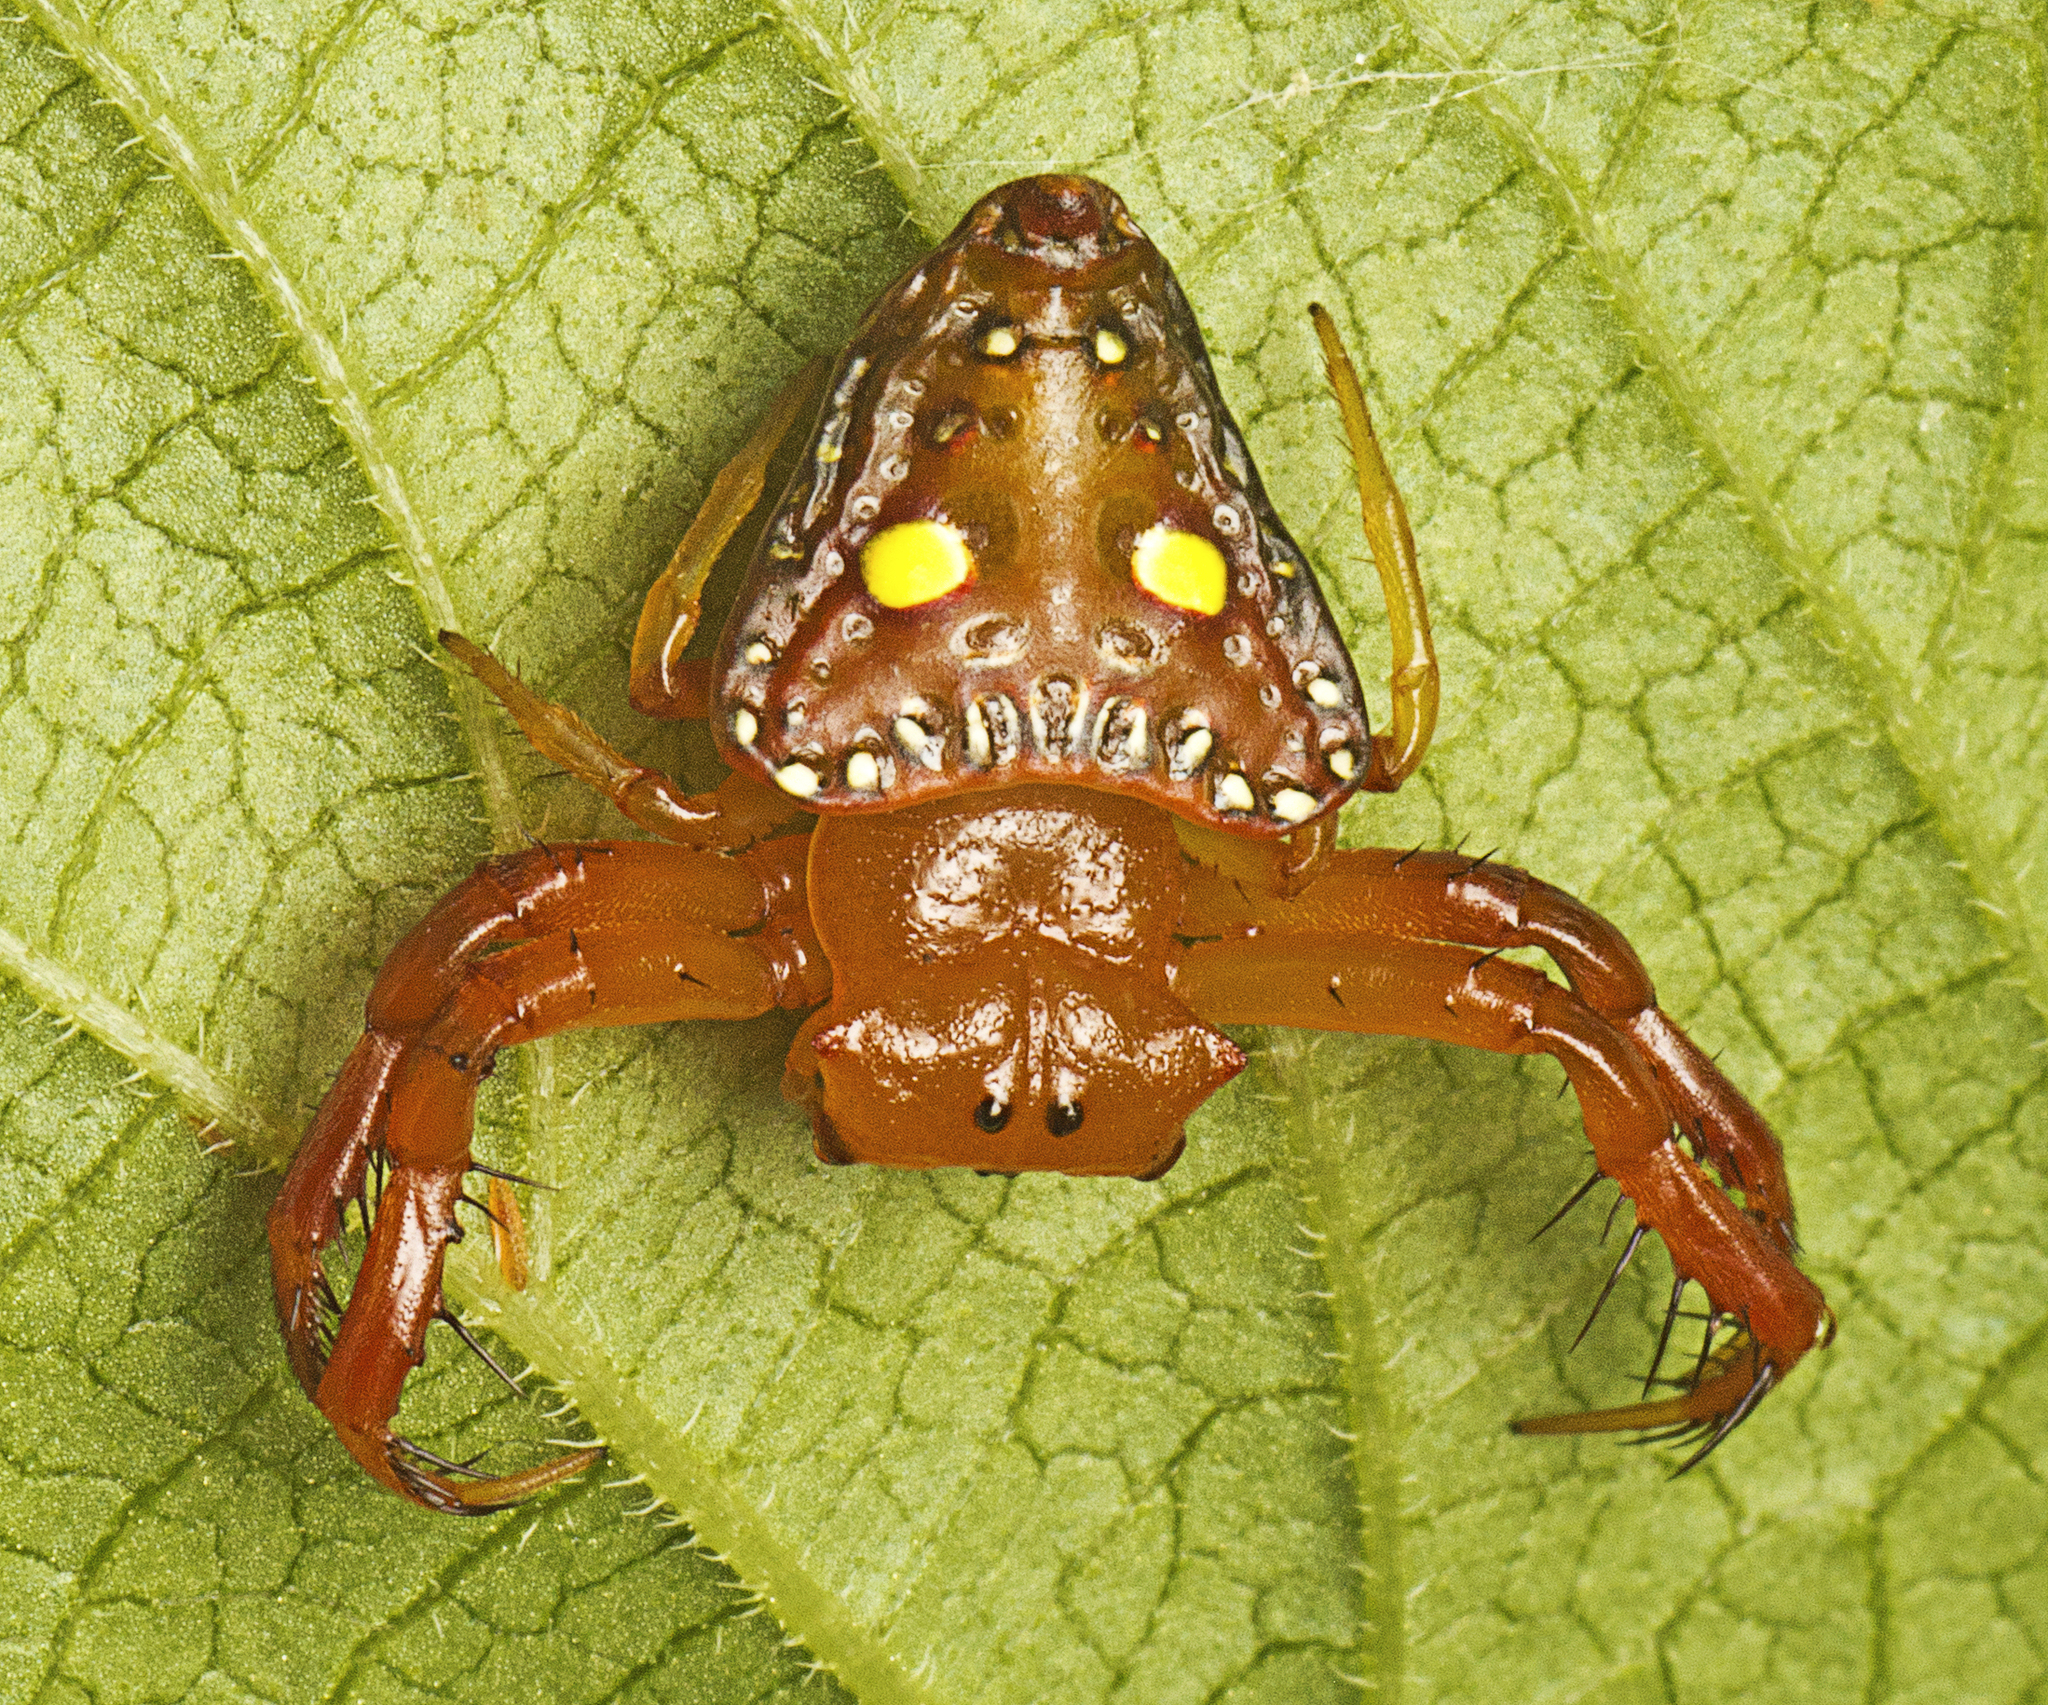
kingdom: Animalia
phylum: Arthropoda
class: Arachnida
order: Araneae
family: Arkyidae
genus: Arkys
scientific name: Arkys lancearius
